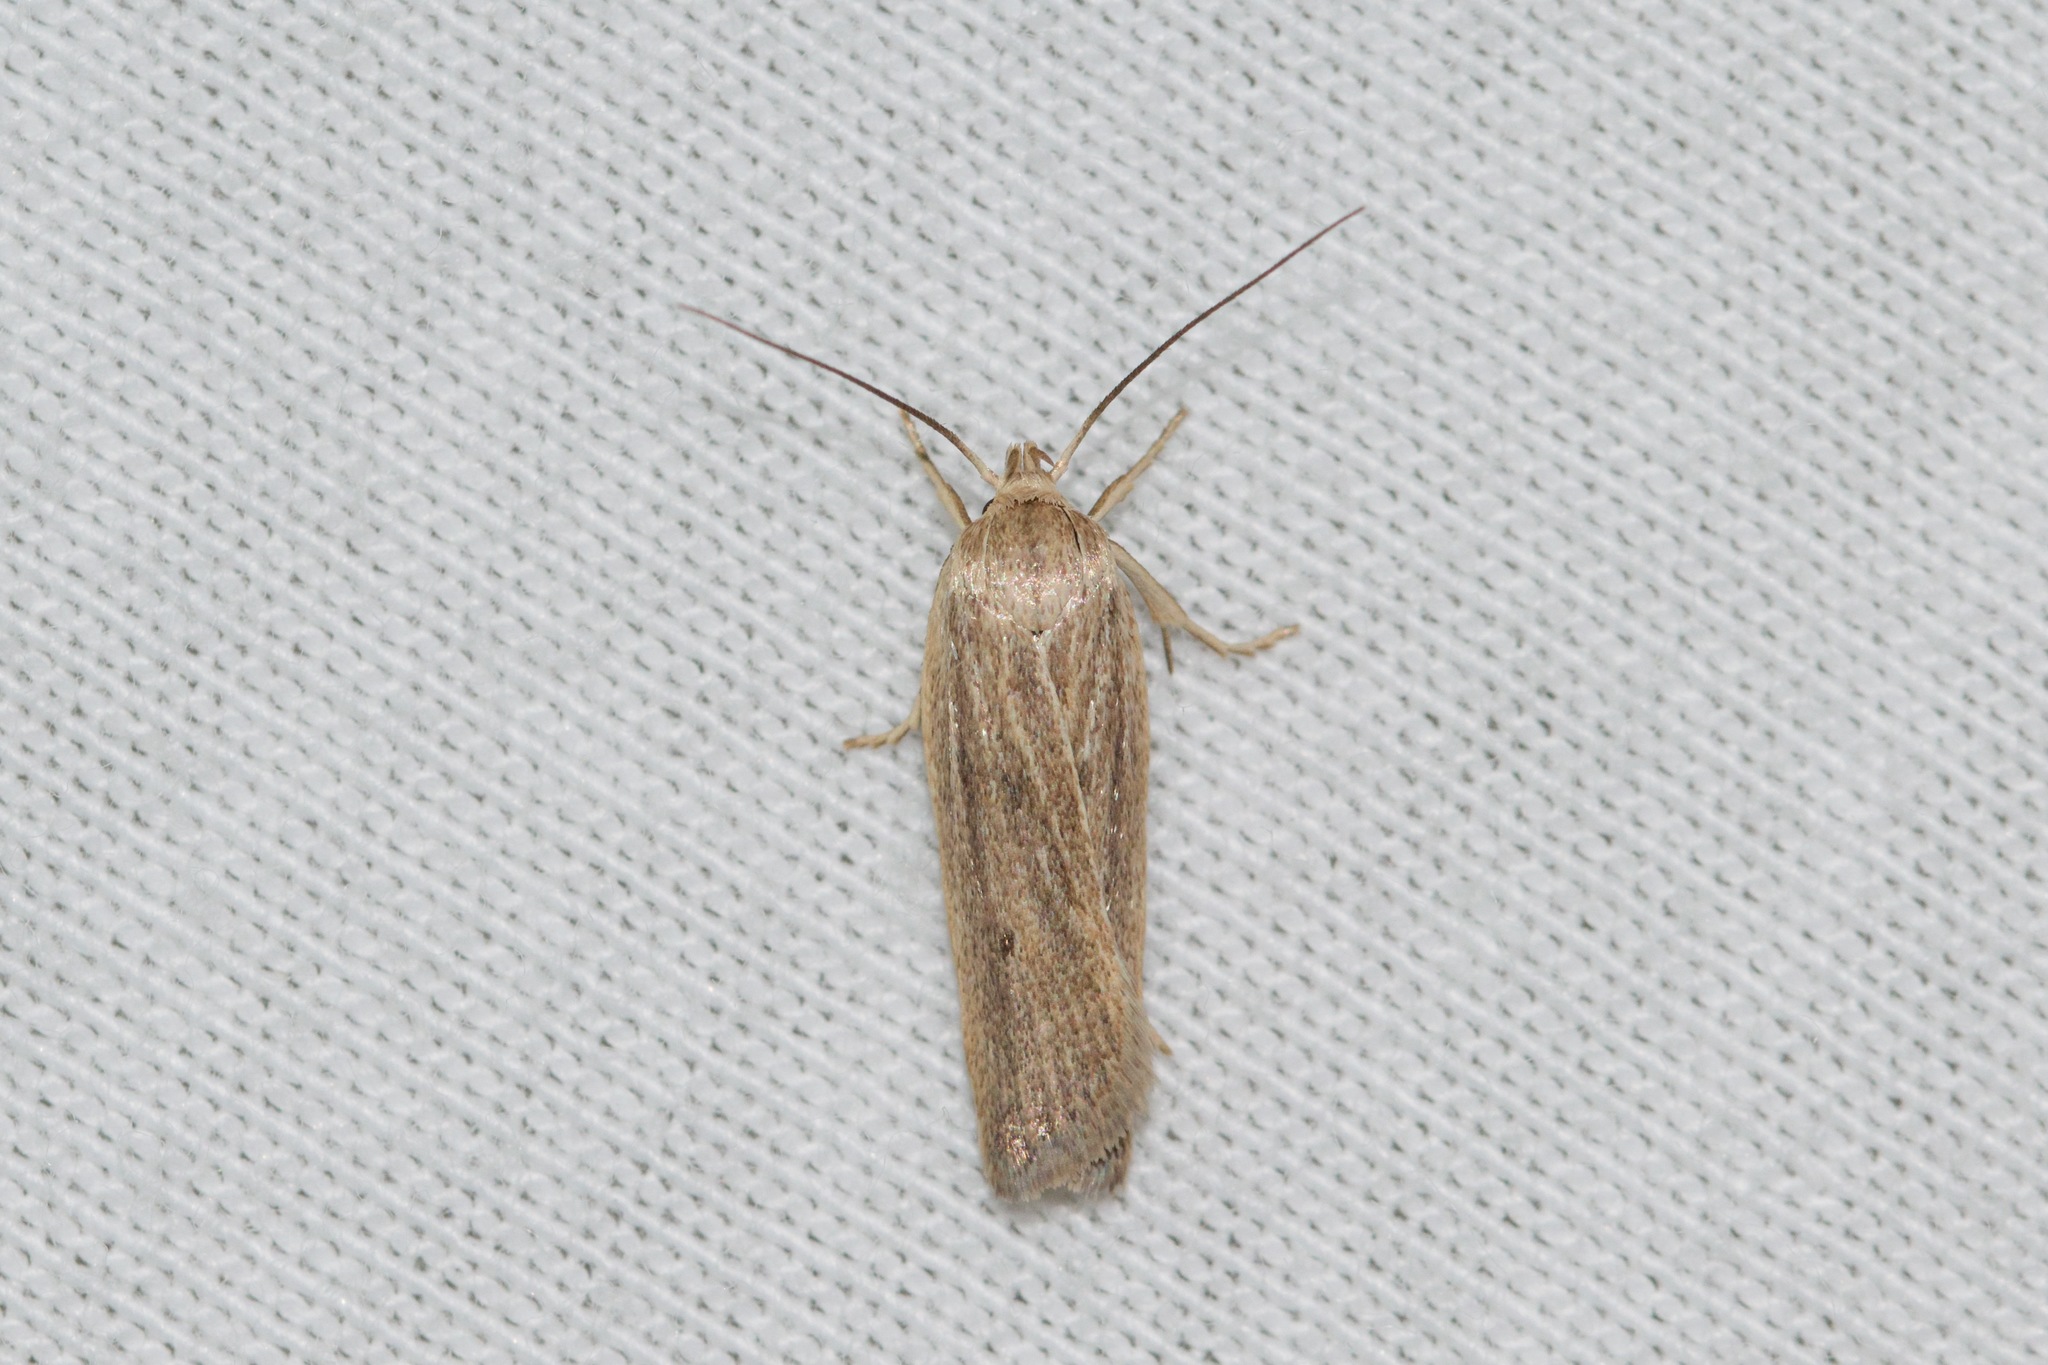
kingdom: Animalia
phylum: Arthropoda
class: Insecta
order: Lepidoptera
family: Depressariidae
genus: Gonioterma
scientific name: Gonioterma mistrella
